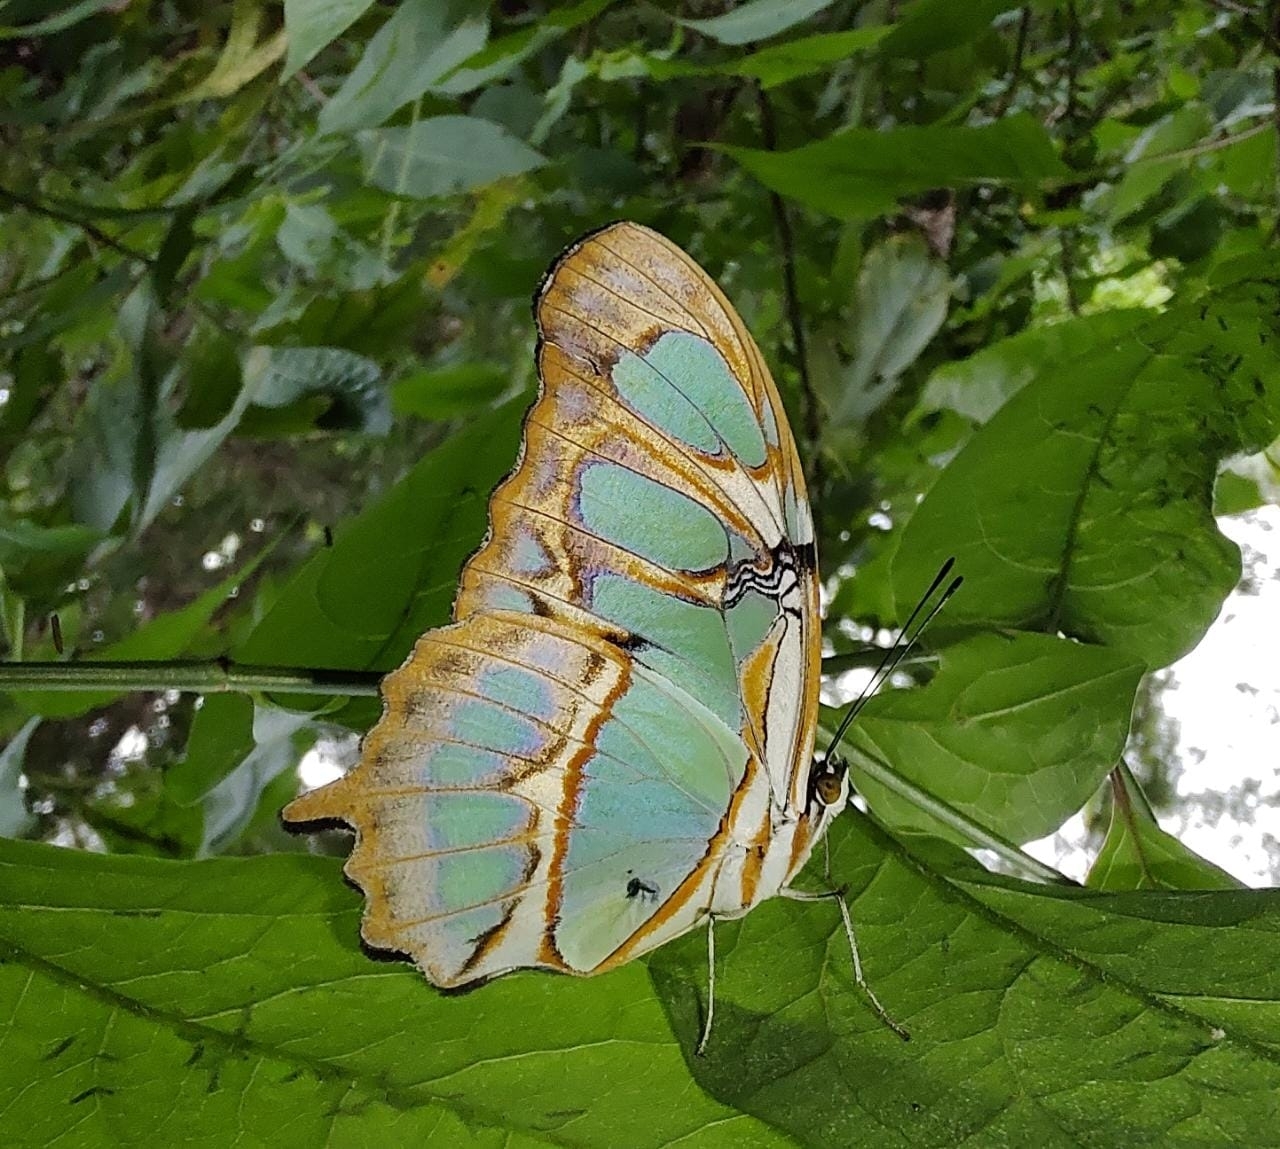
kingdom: Animalia
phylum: Arthropoda
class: Insecta
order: Lepidoptera
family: Nymphalidae
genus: Siproeta
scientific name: Siproeta stelenes
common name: Malachite
